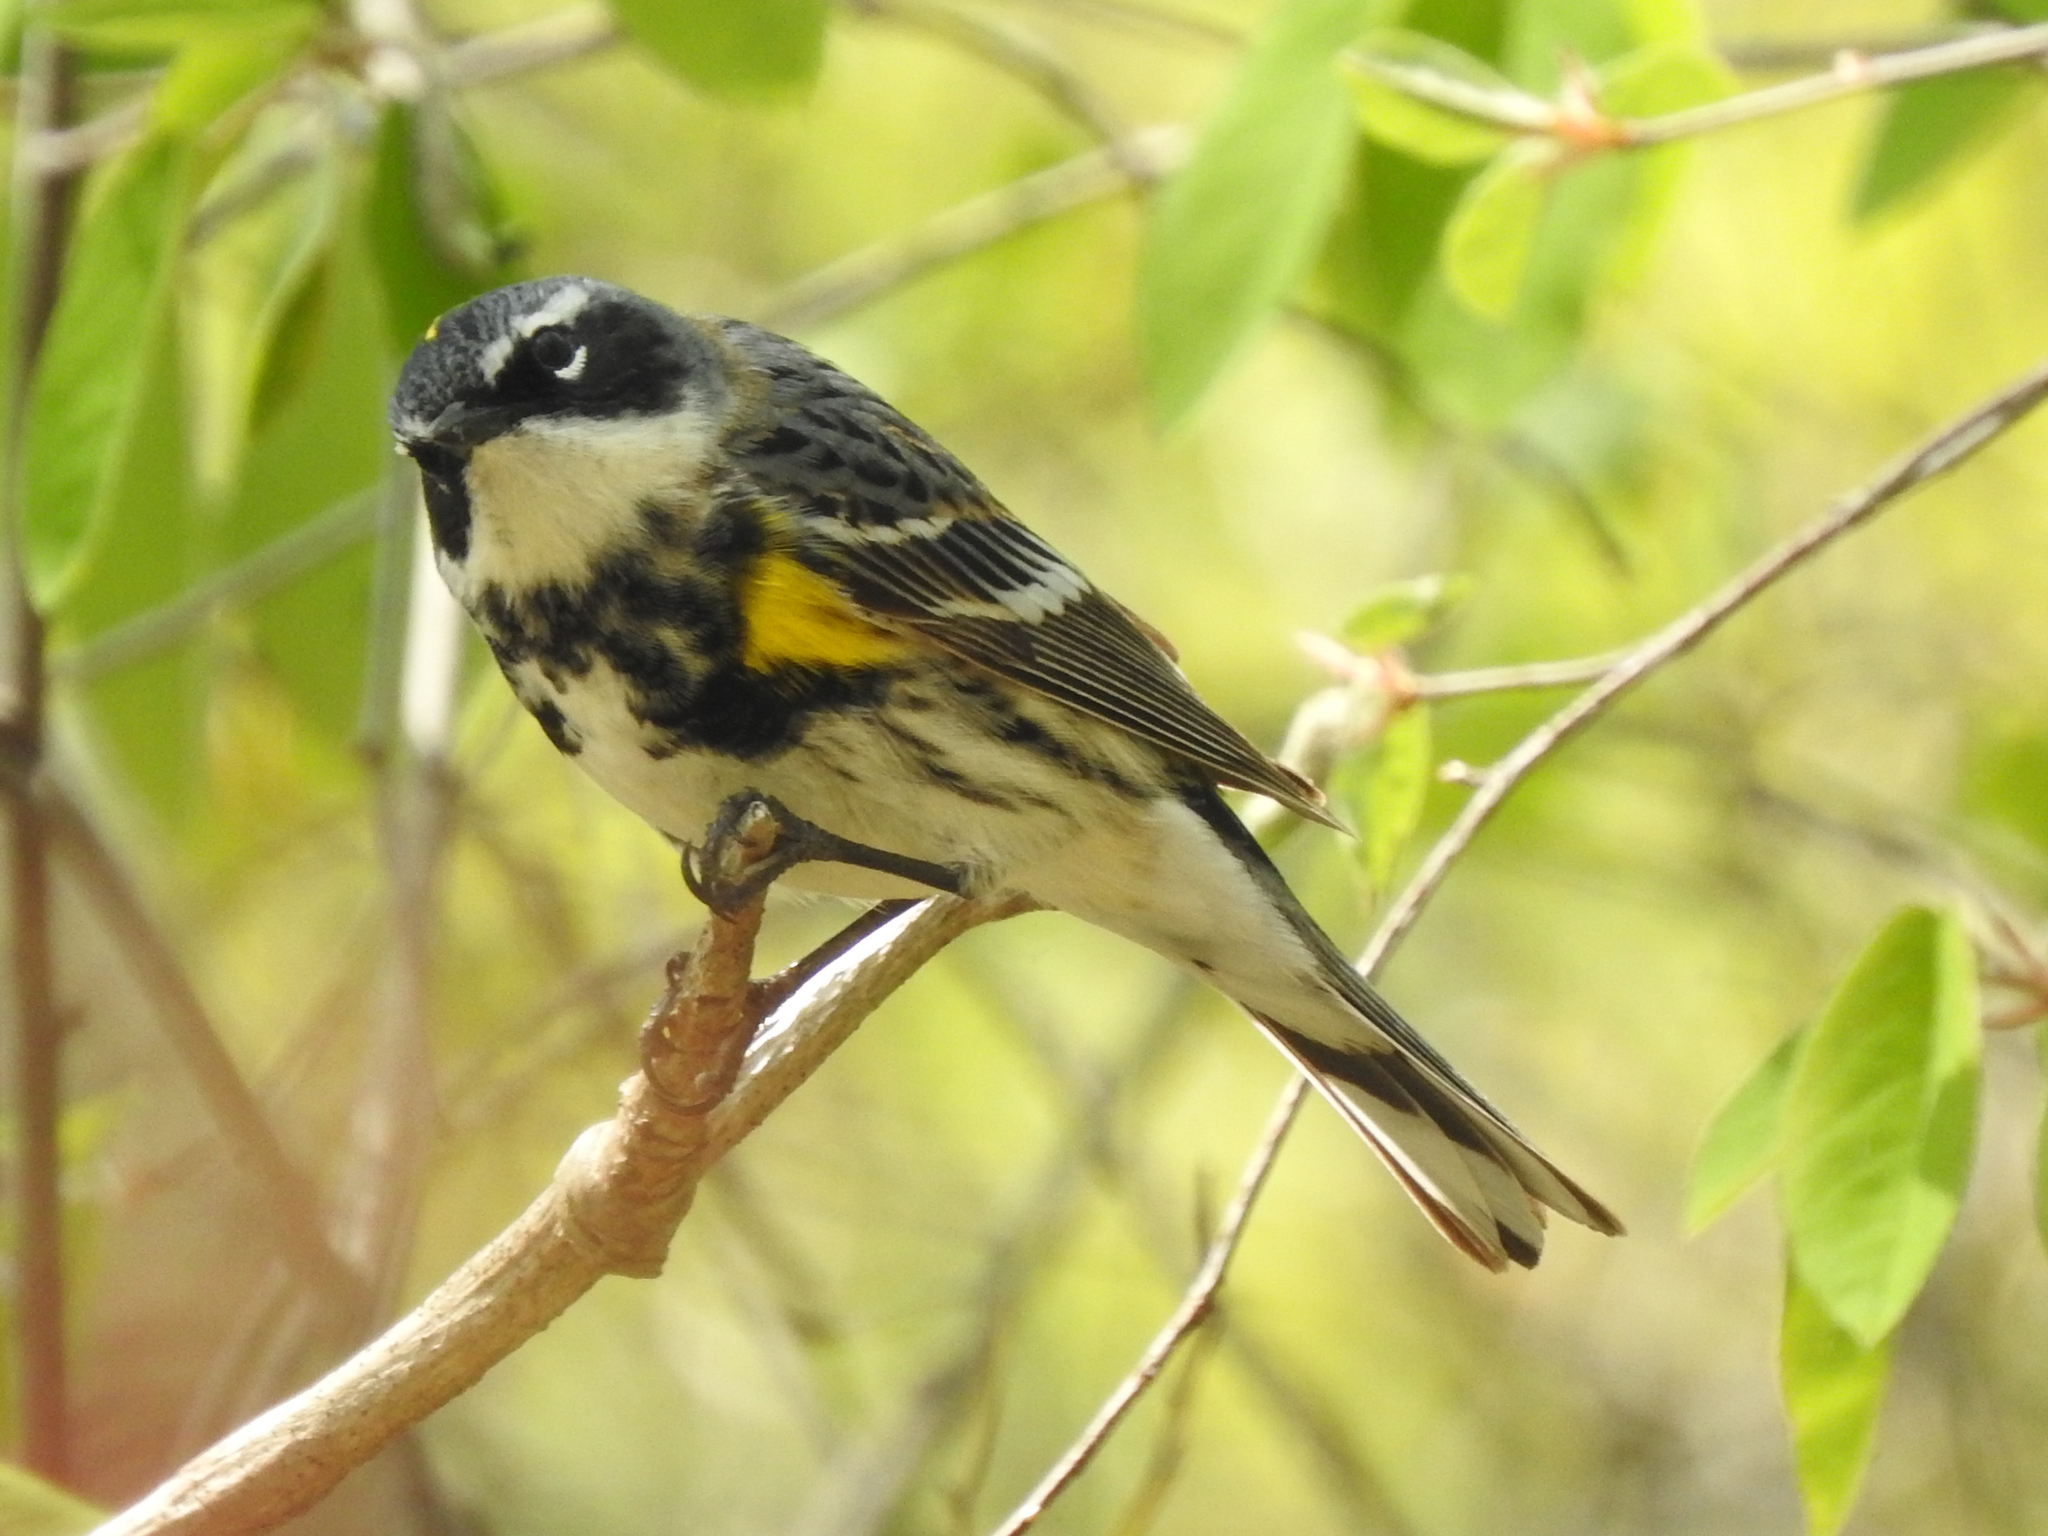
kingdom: Animalia
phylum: Chordata
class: Aves
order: Passeriformes
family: Parulidae
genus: Setophaga
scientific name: Setophaga coronata
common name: Myrtle warbler
